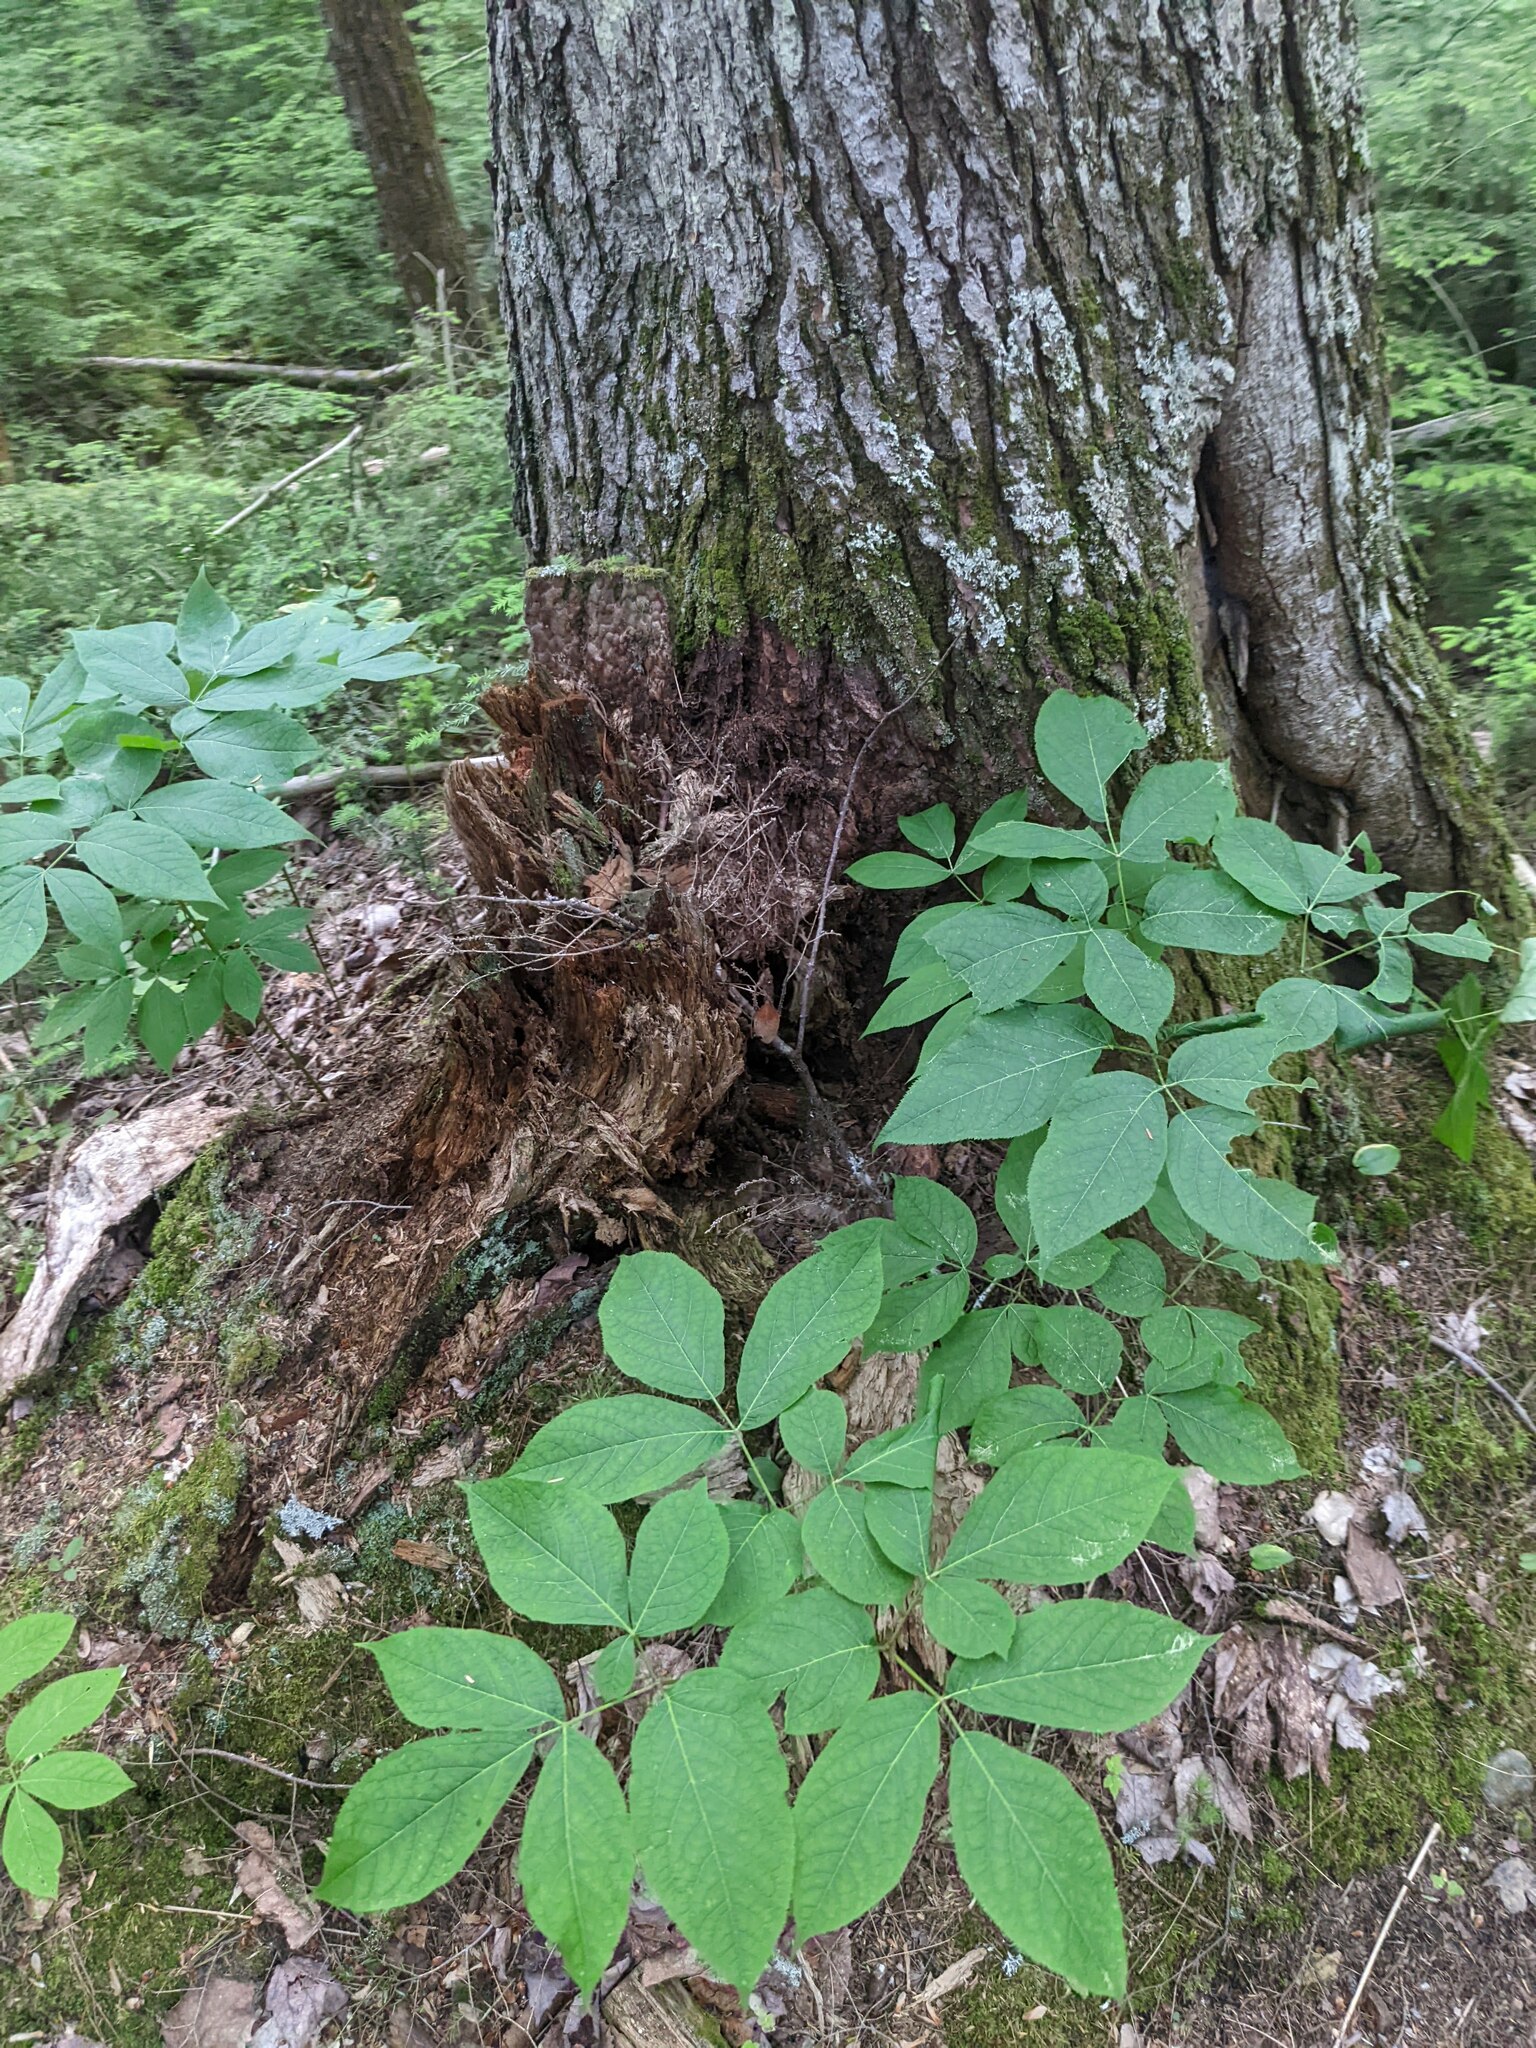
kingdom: Plantae
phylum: Tracheophyta
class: Magnoliopsida
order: Apiales
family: Araliaceae
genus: Aralia
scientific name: Aralia nudicaulis
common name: Wild sarsaparilla
